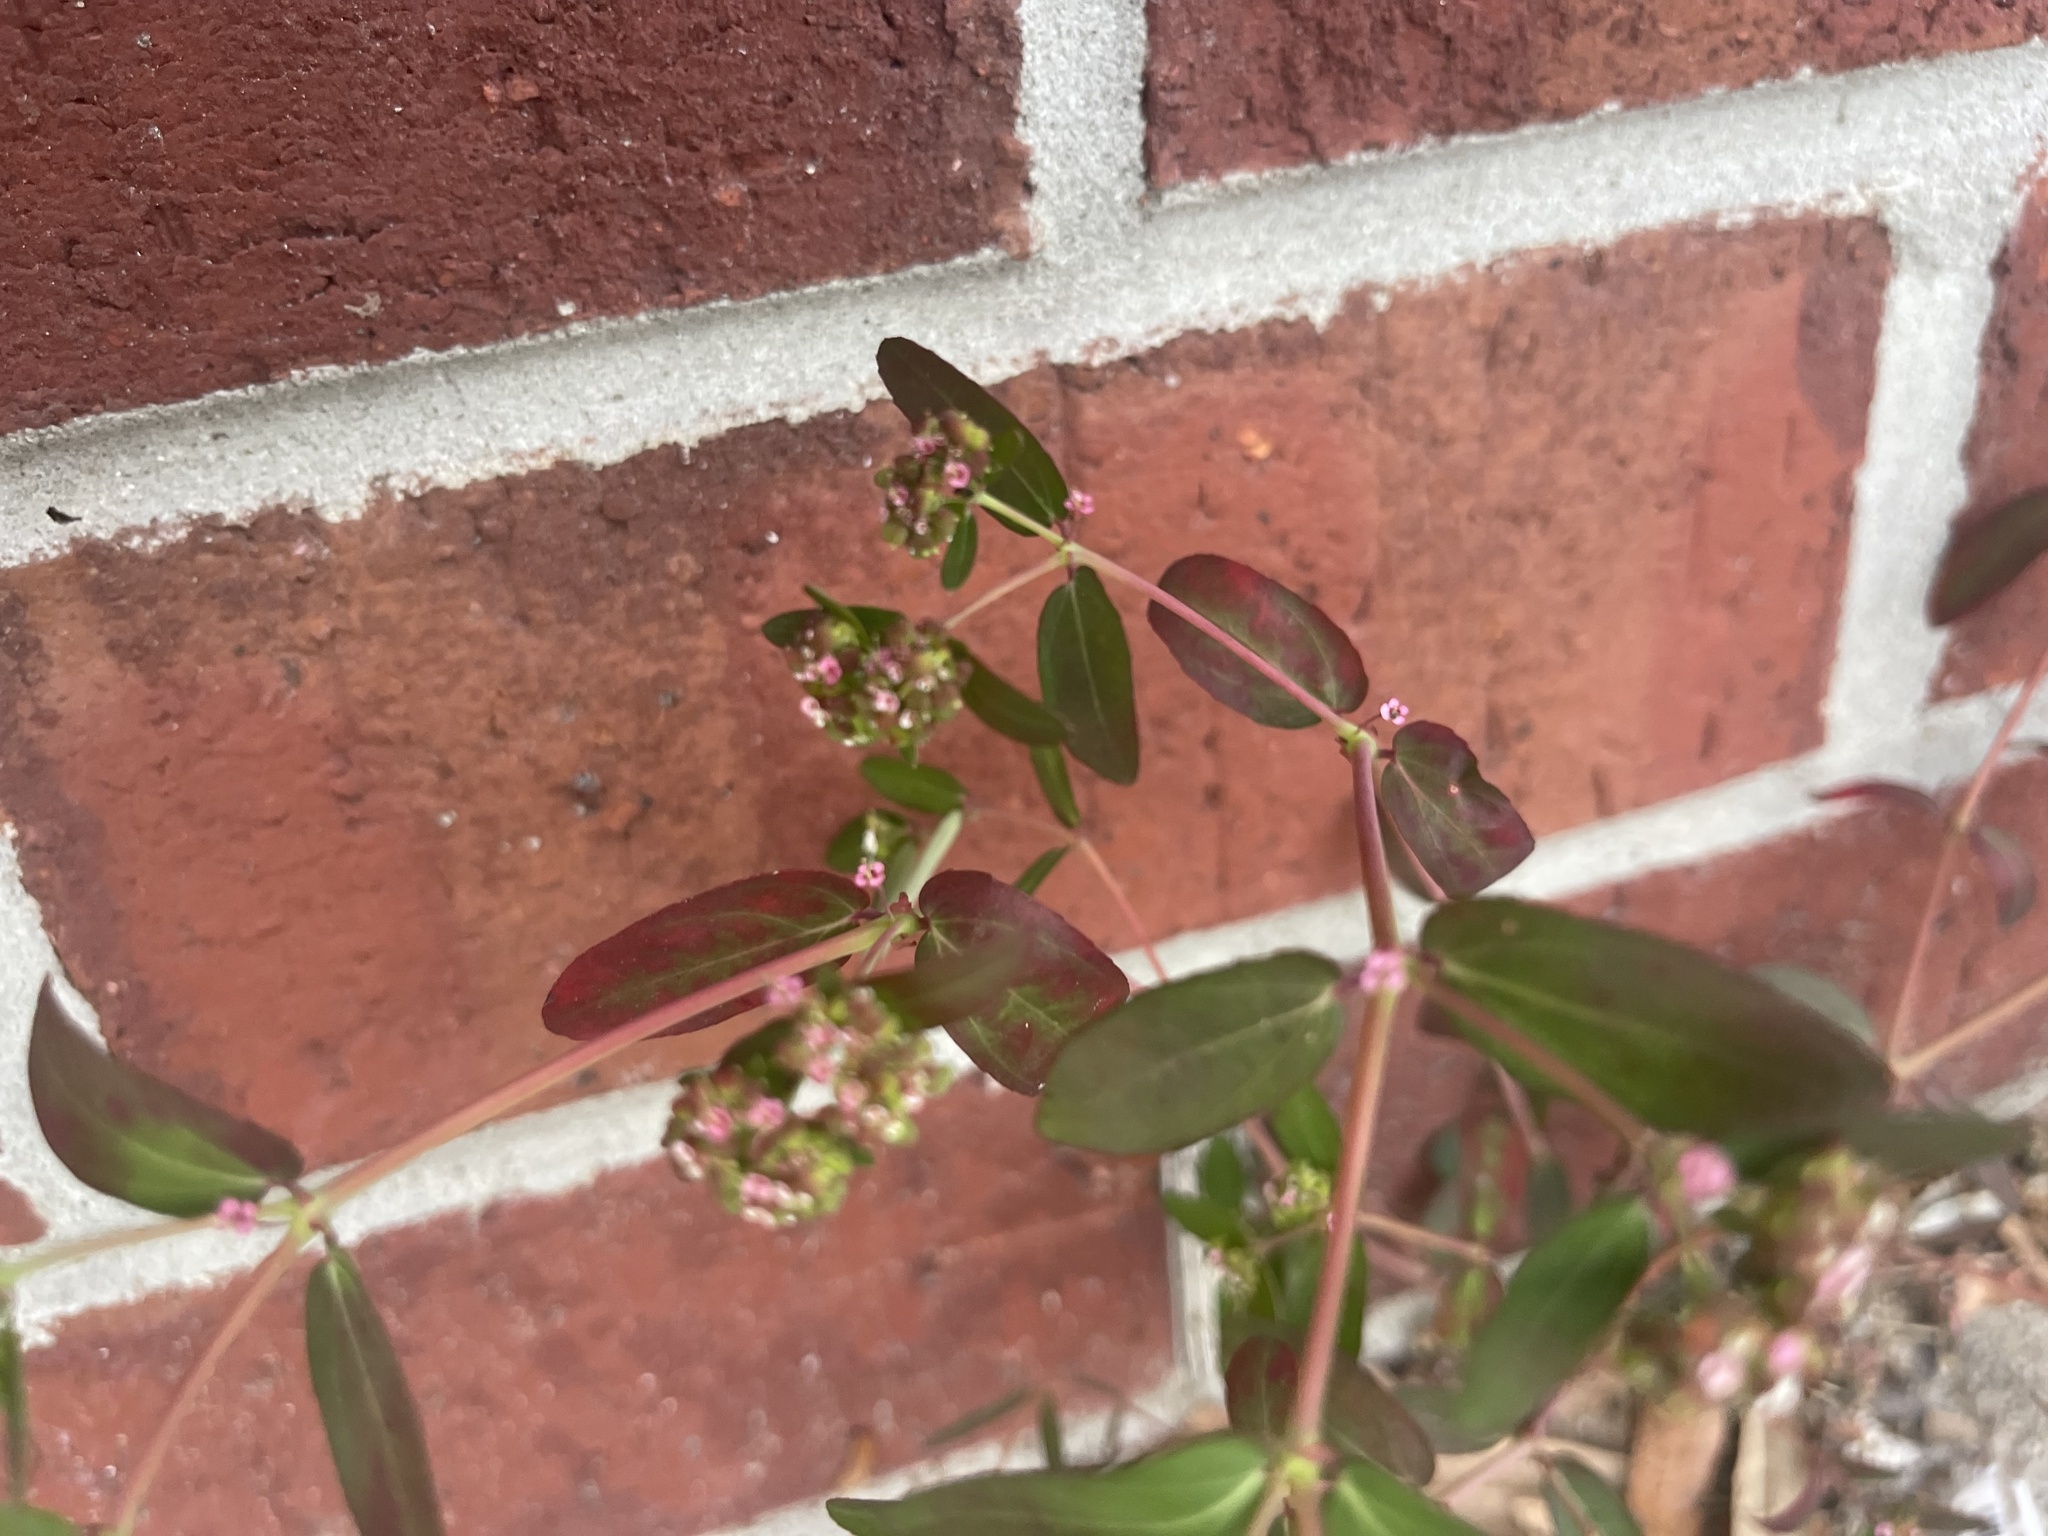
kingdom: Plantae
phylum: Tracheophyta
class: Magnoliopsida
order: Malpighiales
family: Euphorbiaceae
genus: Euphorbia
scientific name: Euphorbia hypericifolia
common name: Graceful sandmat
